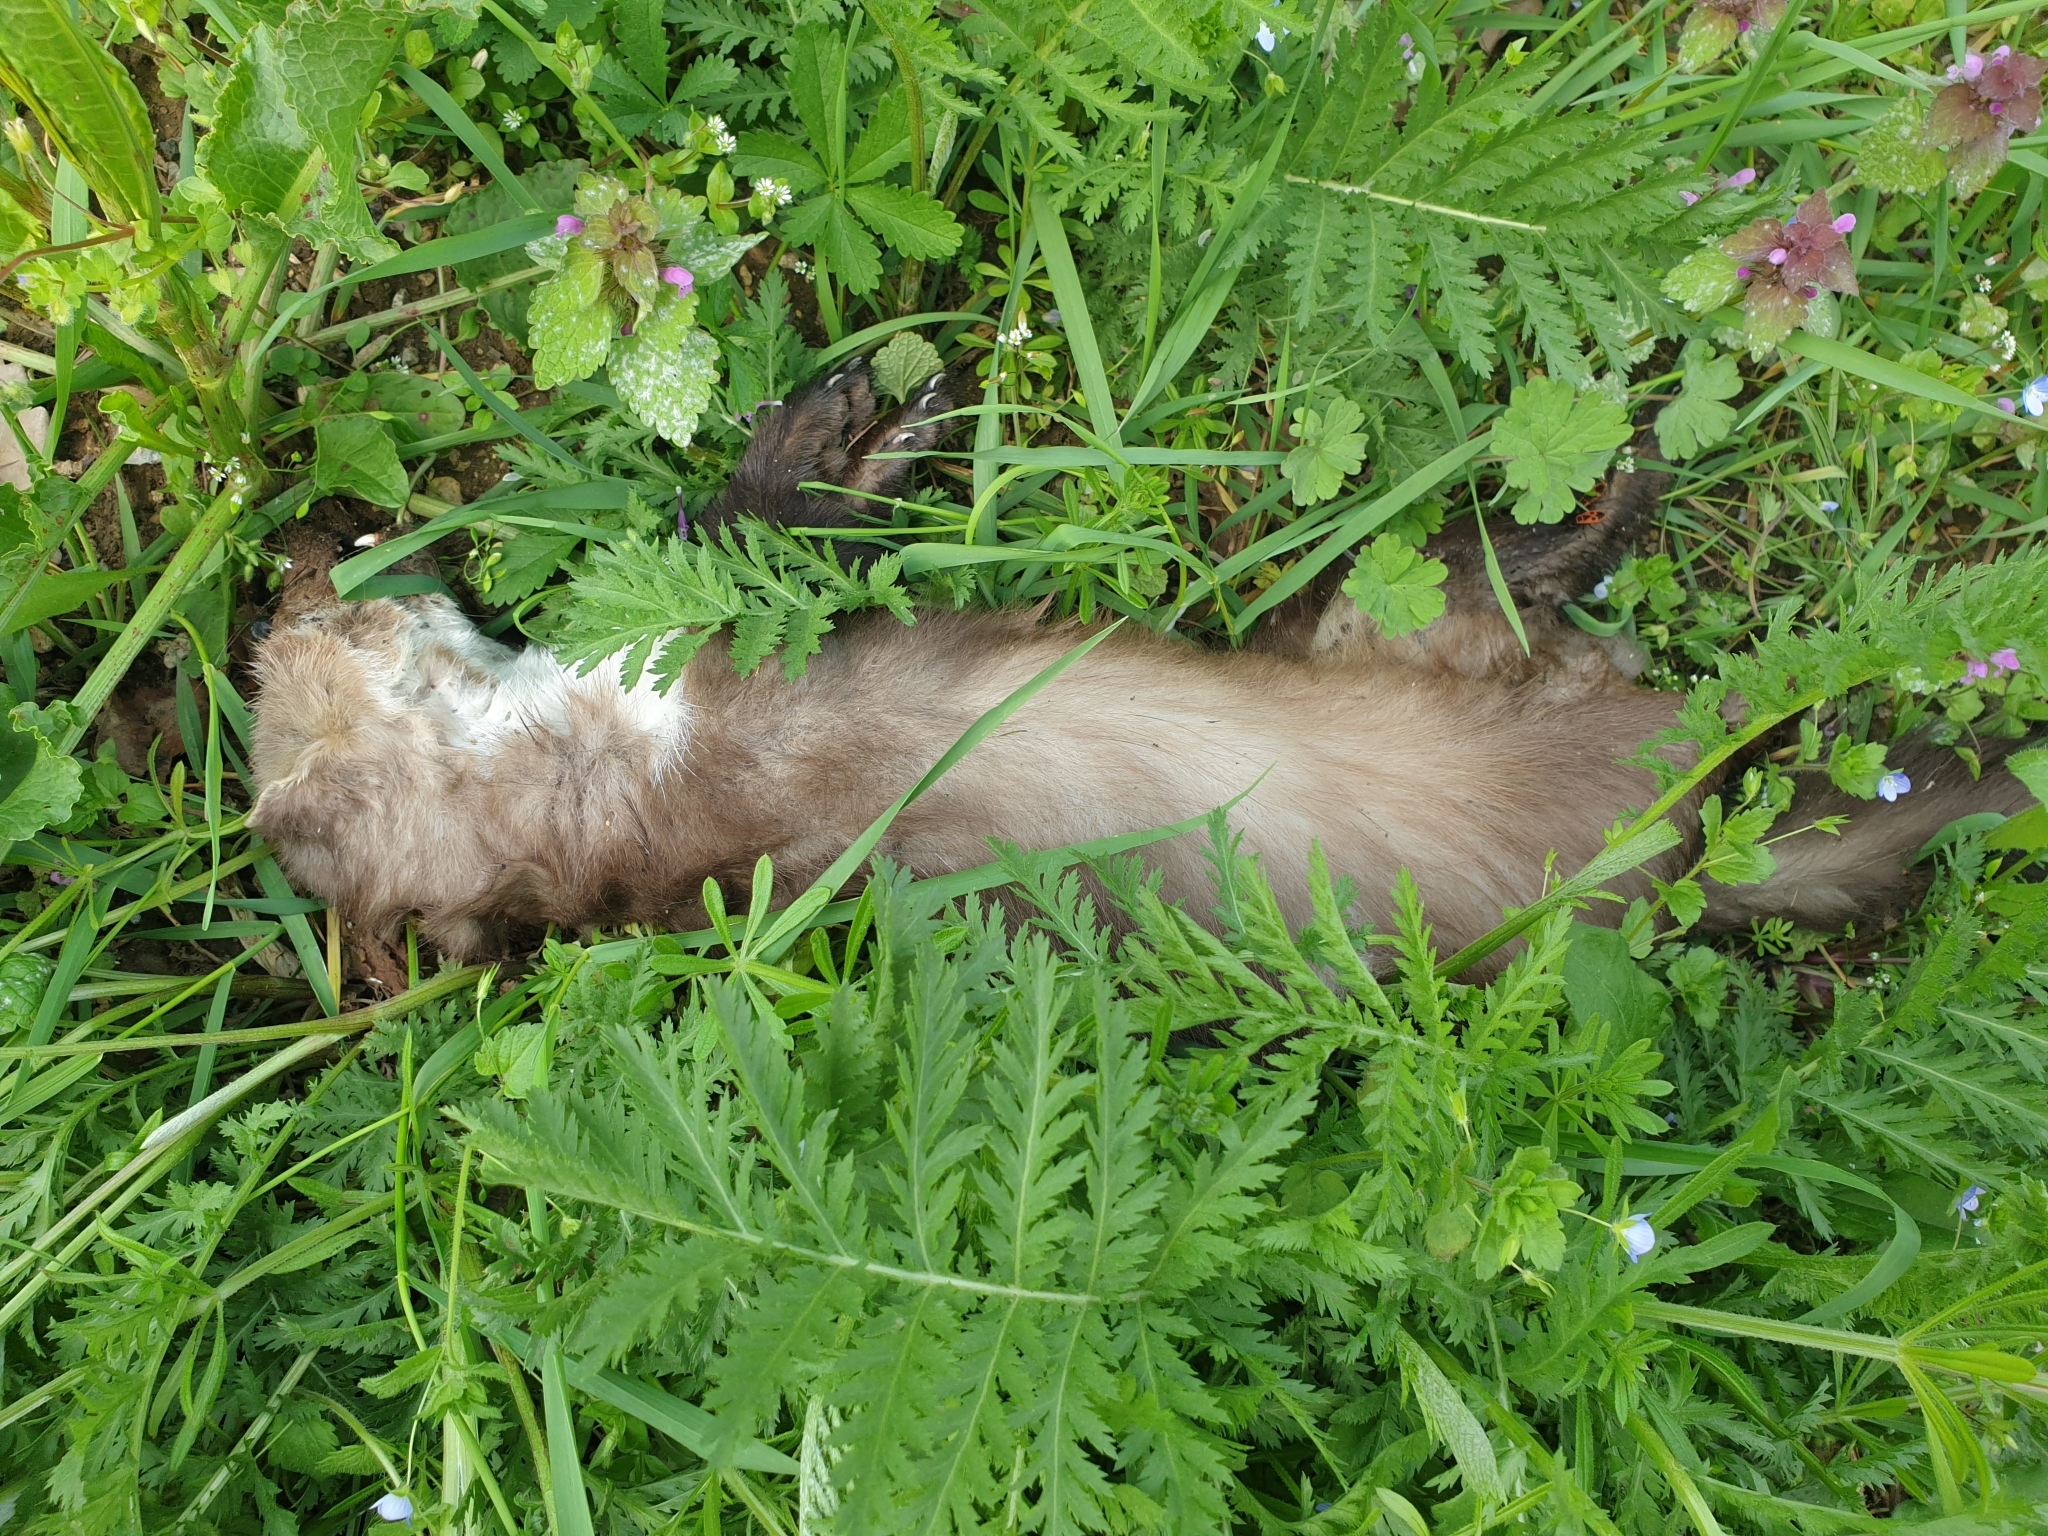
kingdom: Animalia
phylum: Chordata
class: Mammalia
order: Carnivora
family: Mustelidae
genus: Martes
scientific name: Martes foina
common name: Beech marten
